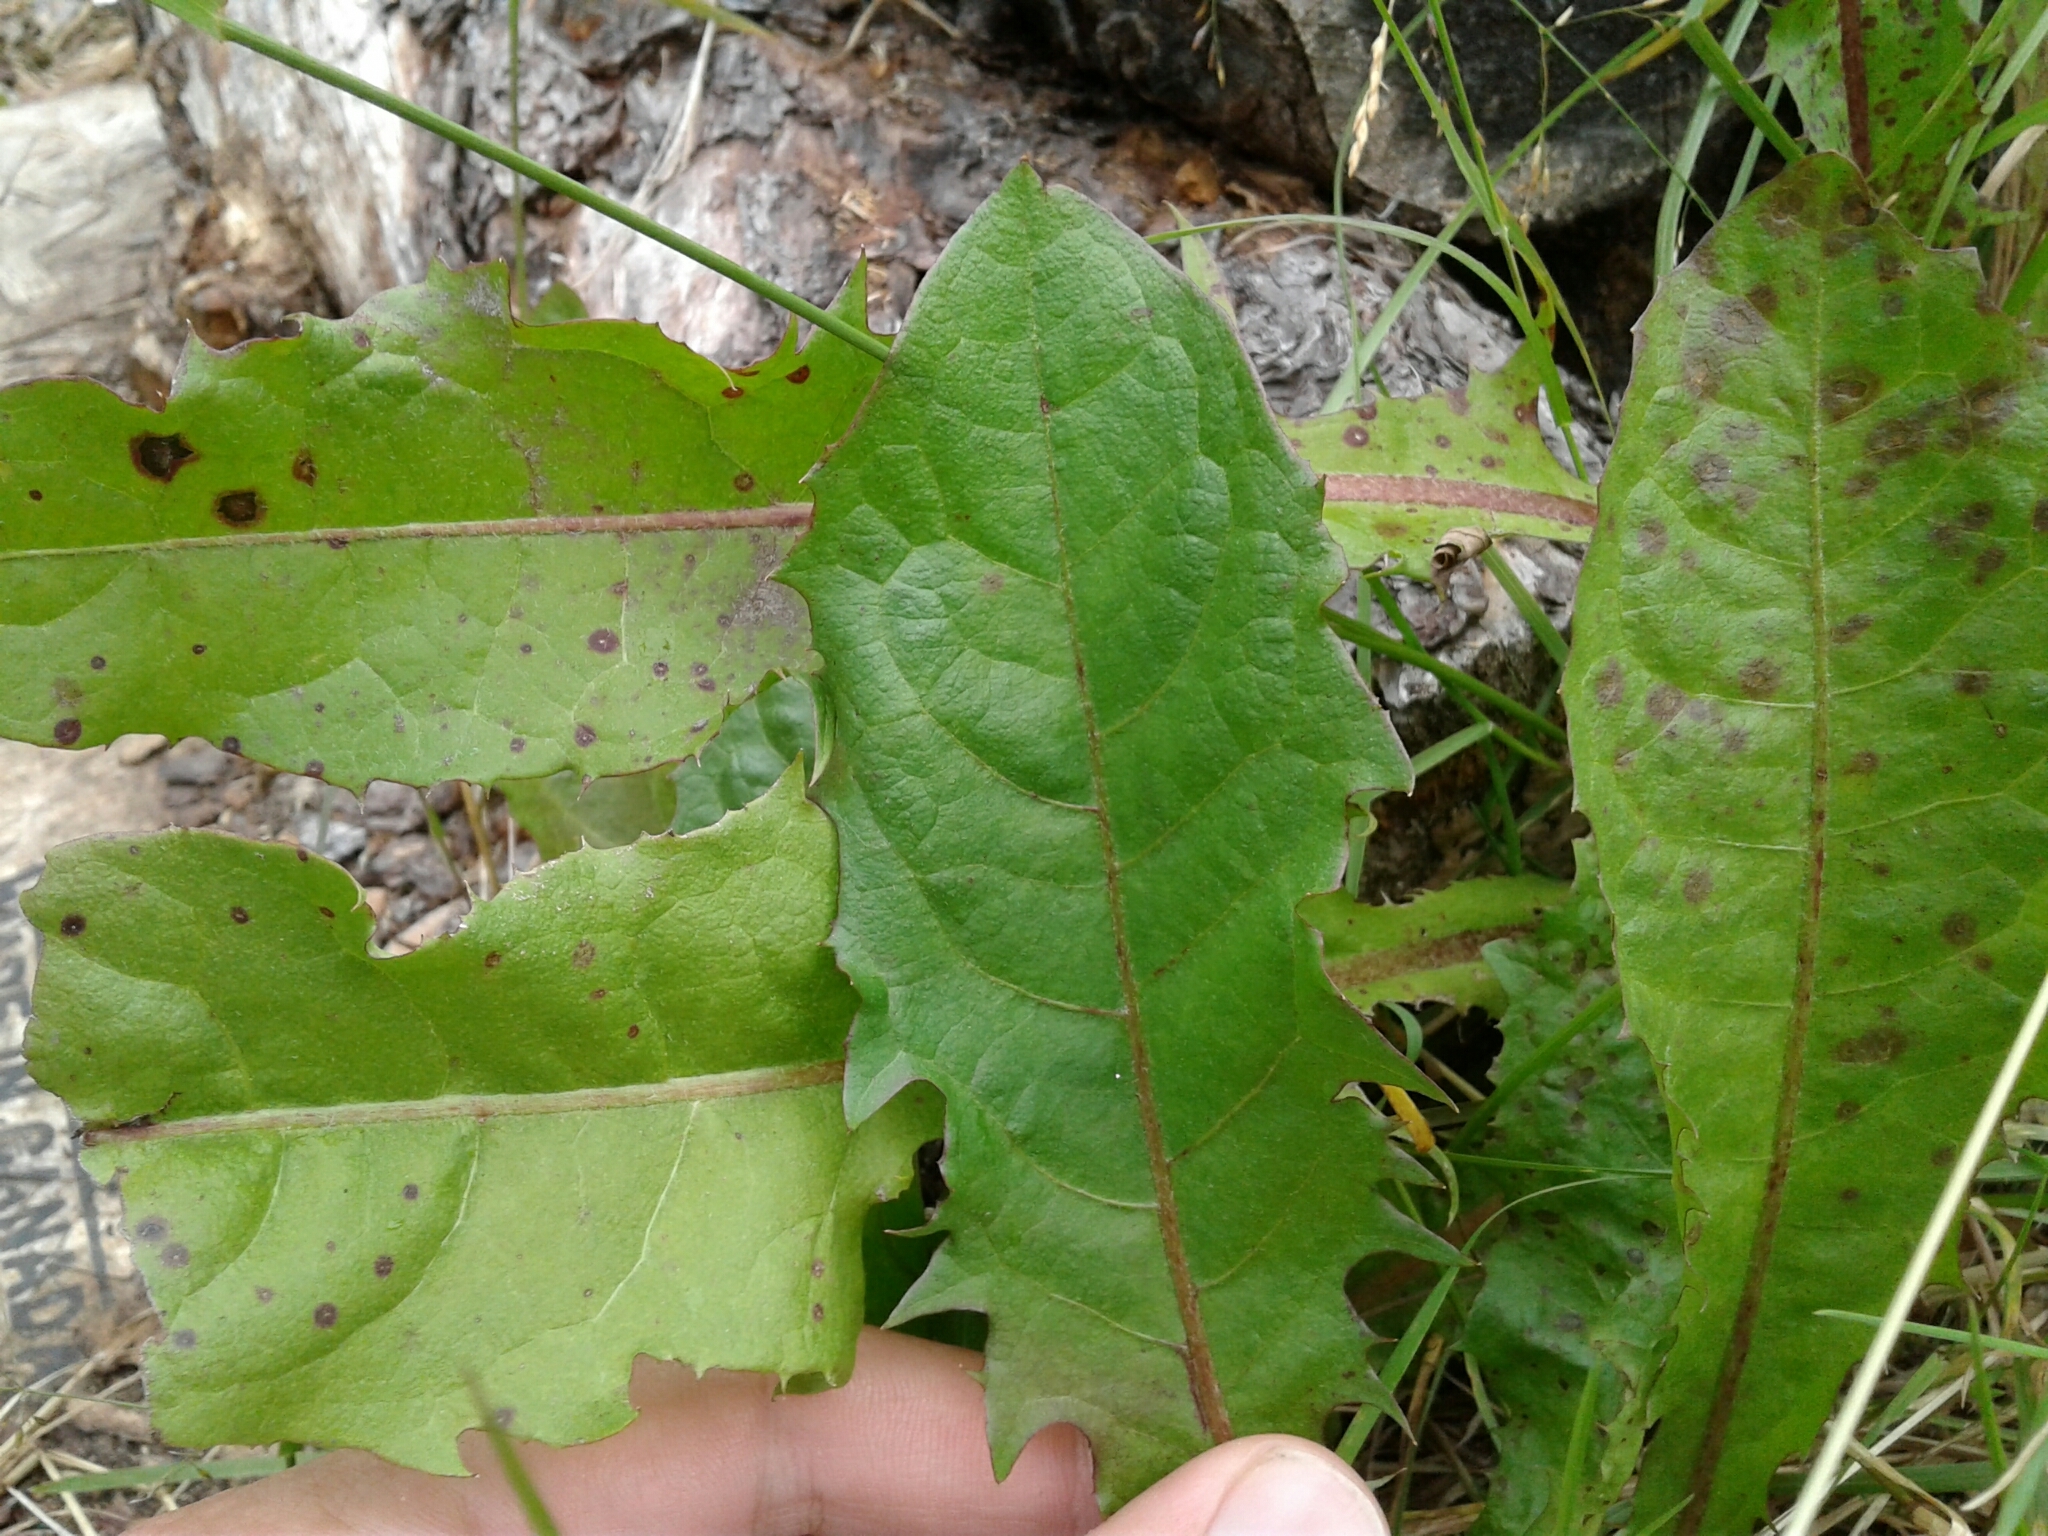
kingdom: Plantae
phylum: Tracheophyta
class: Magnoliopsida
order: Asterales
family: Asteraceae
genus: Taraxacum
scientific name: Taraxacum officinale
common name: Common dandelion
